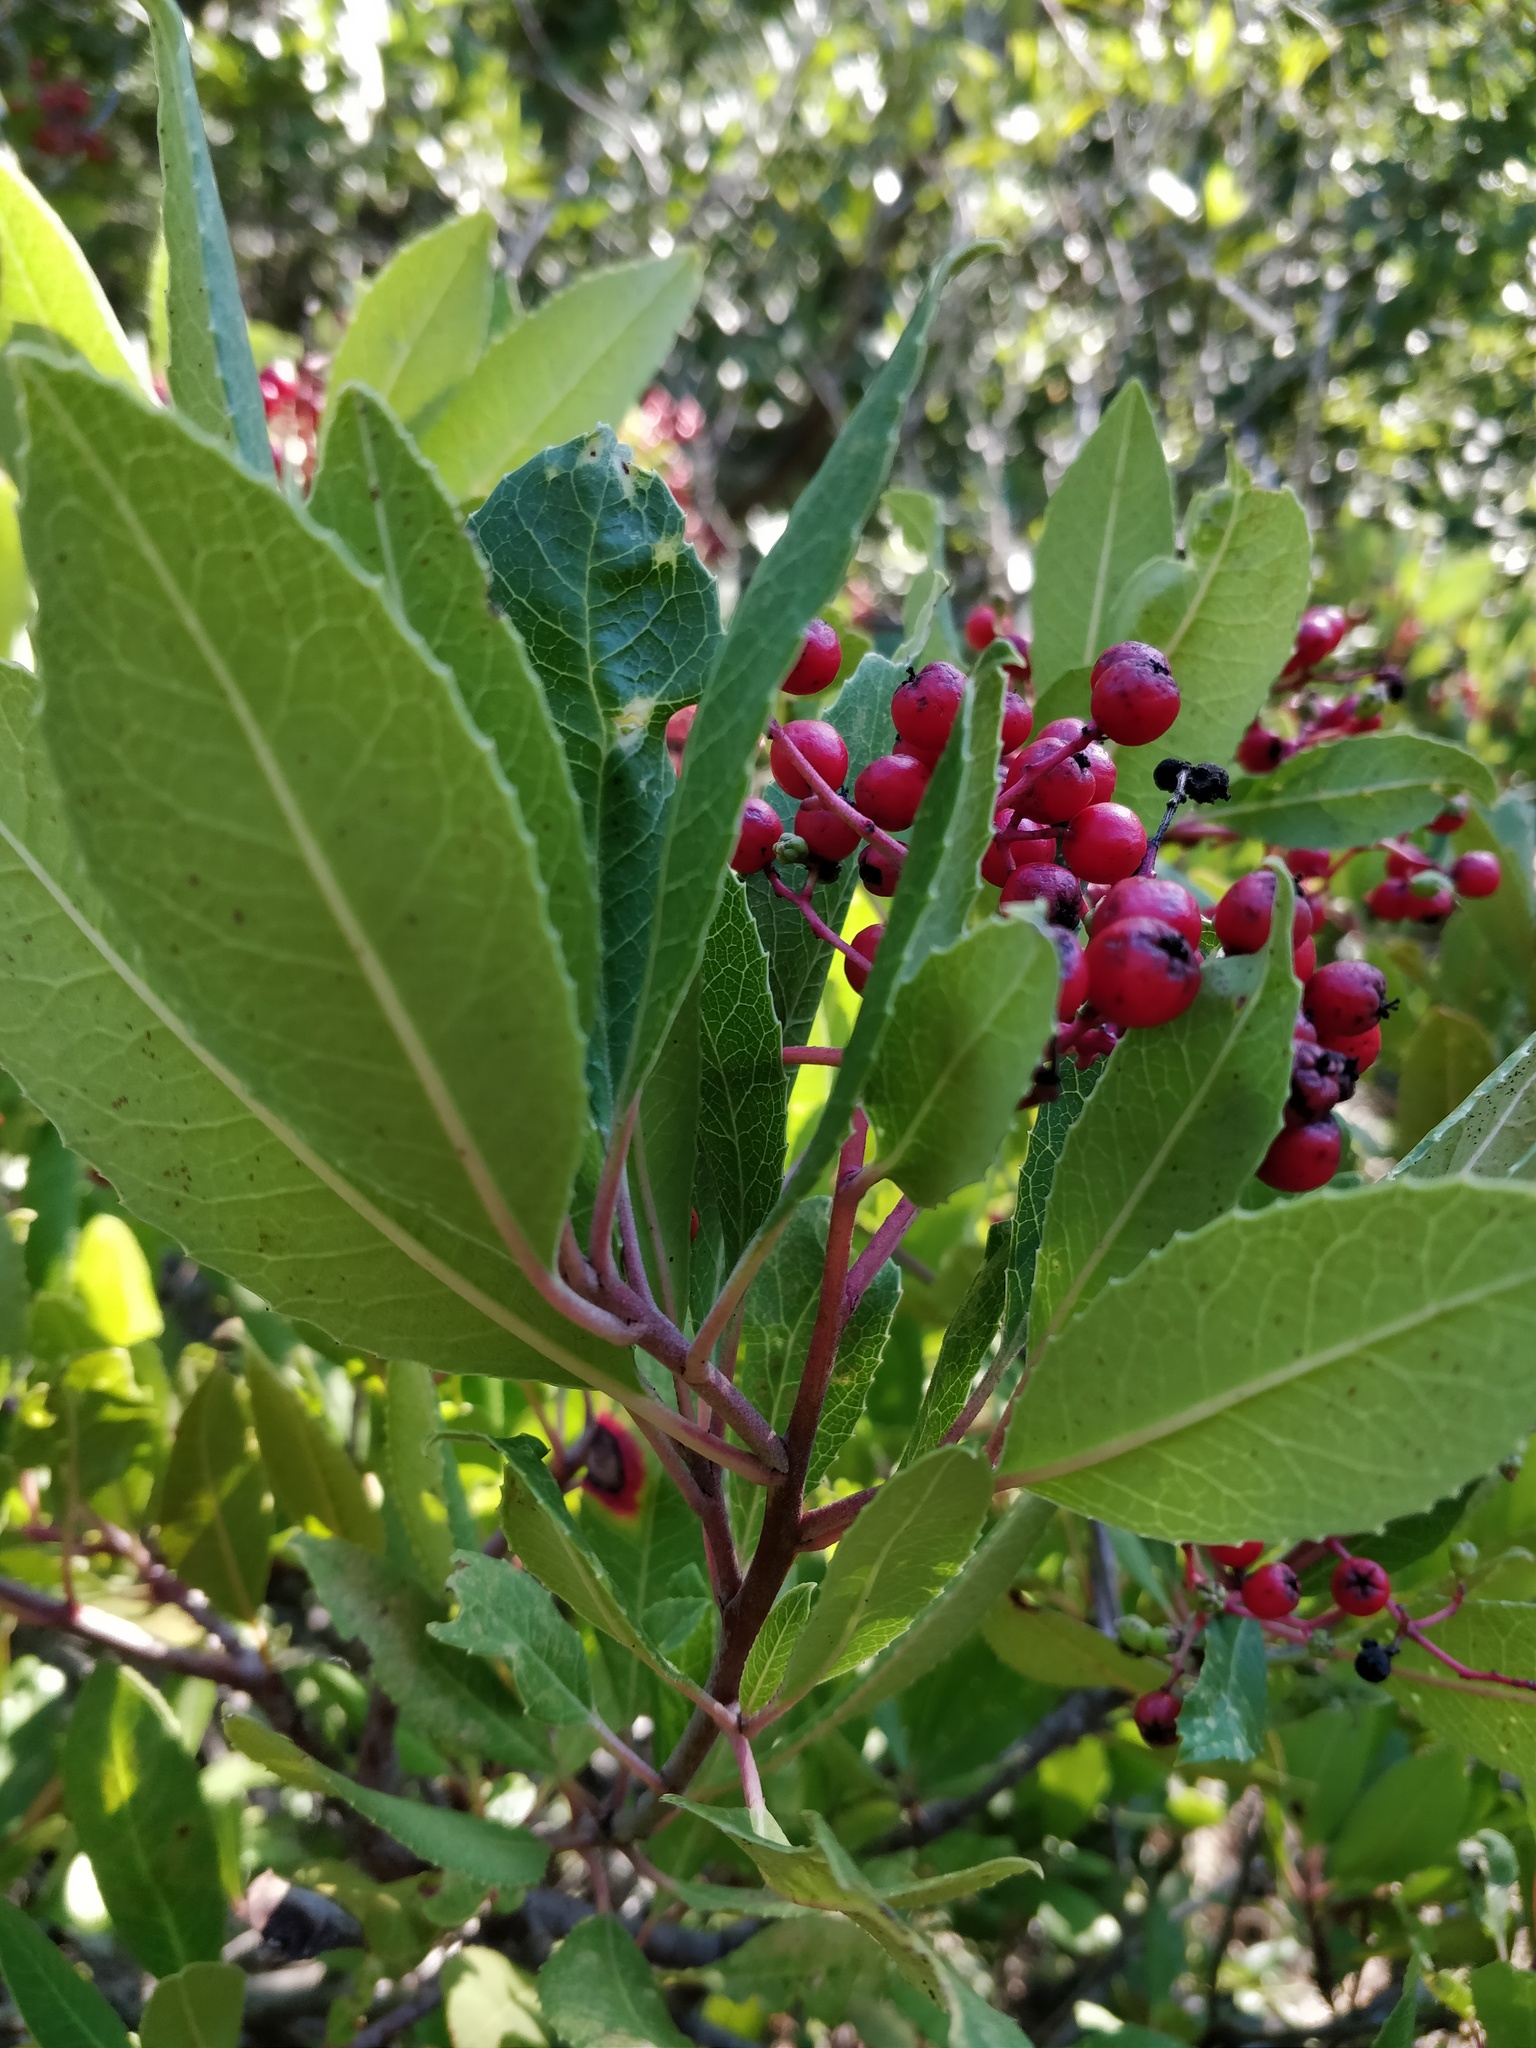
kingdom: Plantae
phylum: Tracheophyta
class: Magnoliopsida
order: Rosales
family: Rosaceae
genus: Heteromeles
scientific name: Heteromeles arbutifolia
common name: California-holly
